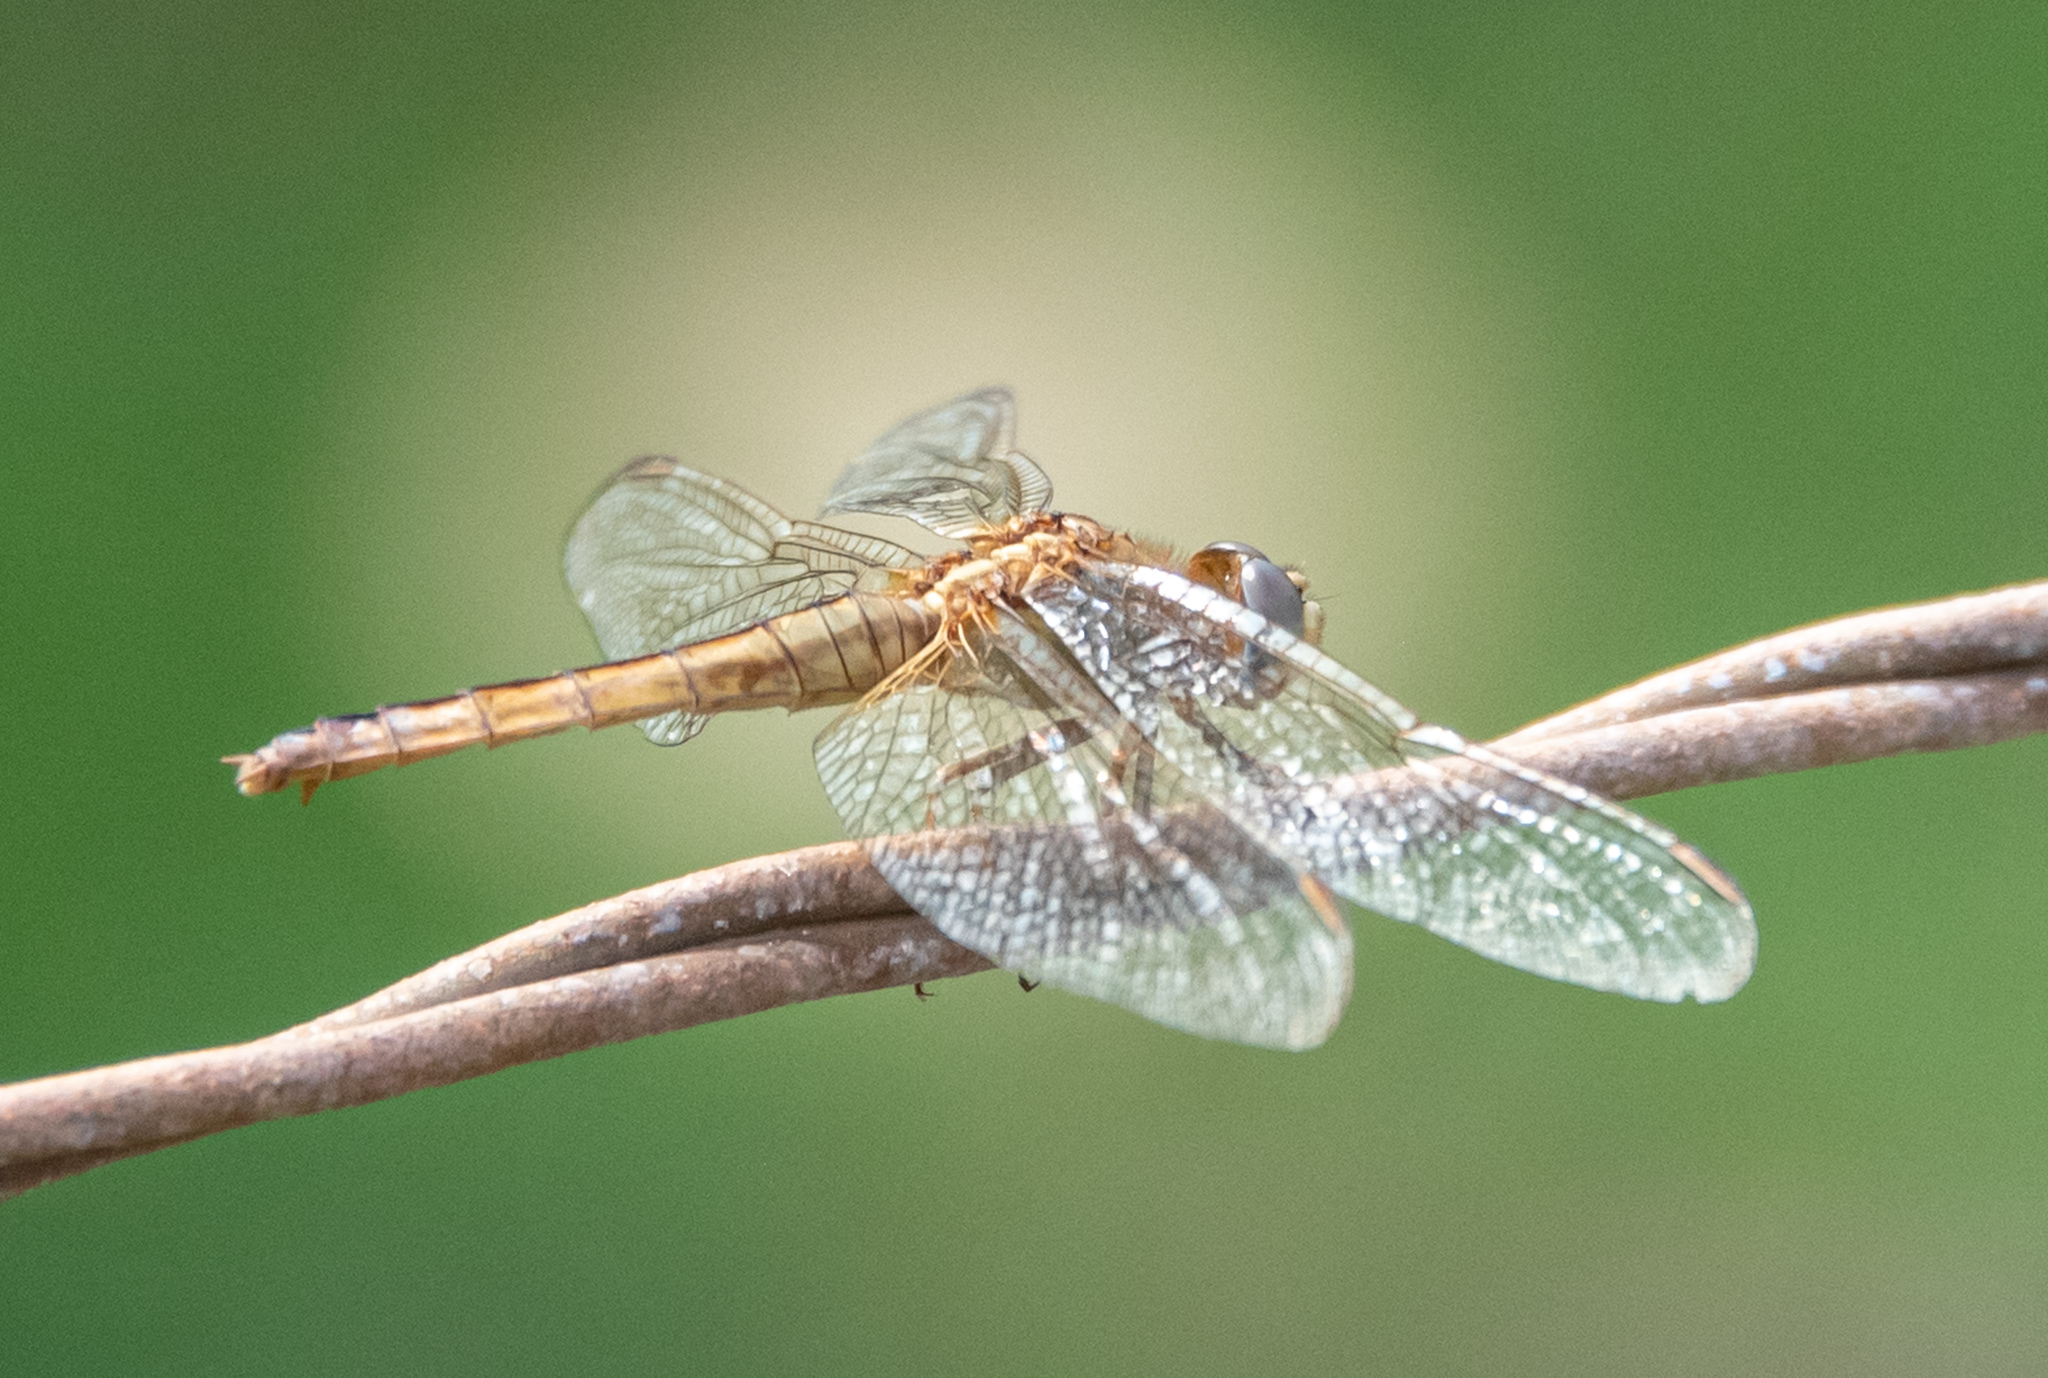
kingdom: Animalia
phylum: Arthropoda
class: Insecta
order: Odonata
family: Libellulidae
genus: Crocothemis
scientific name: Crocothemis servilia
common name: Scarlet skimmer
